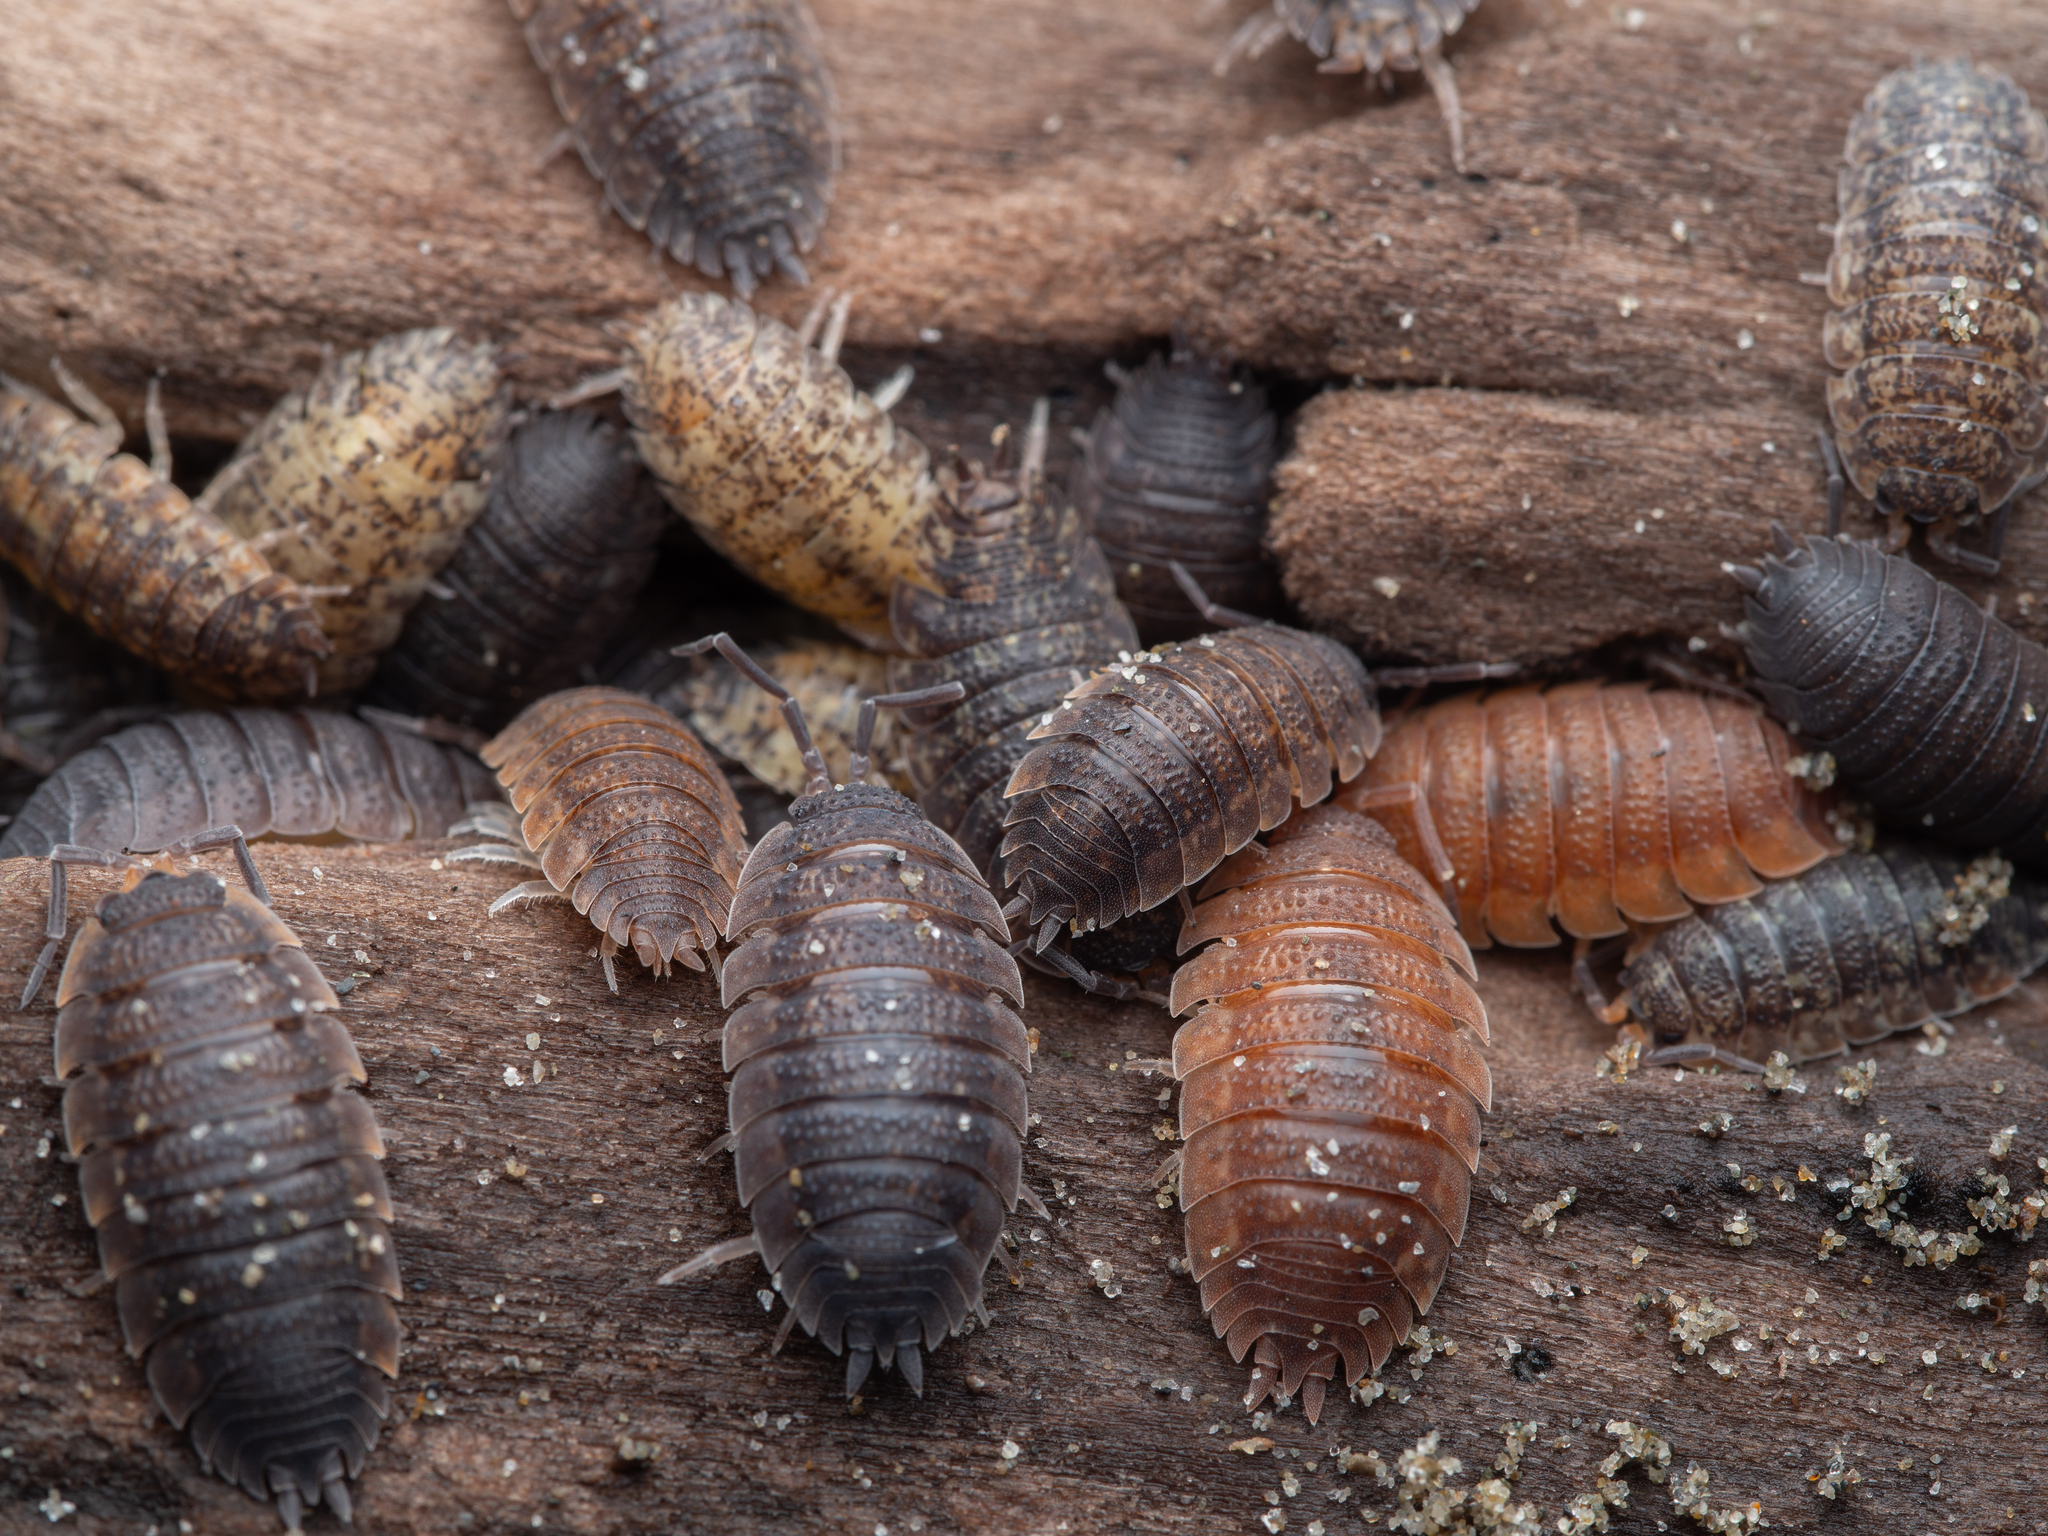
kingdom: Animalia
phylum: Arthropoda
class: Malacostraca
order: Isopoda
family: Porcellionidae
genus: Porcellio
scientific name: Porcellio scaber
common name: Common rough woodlouse
